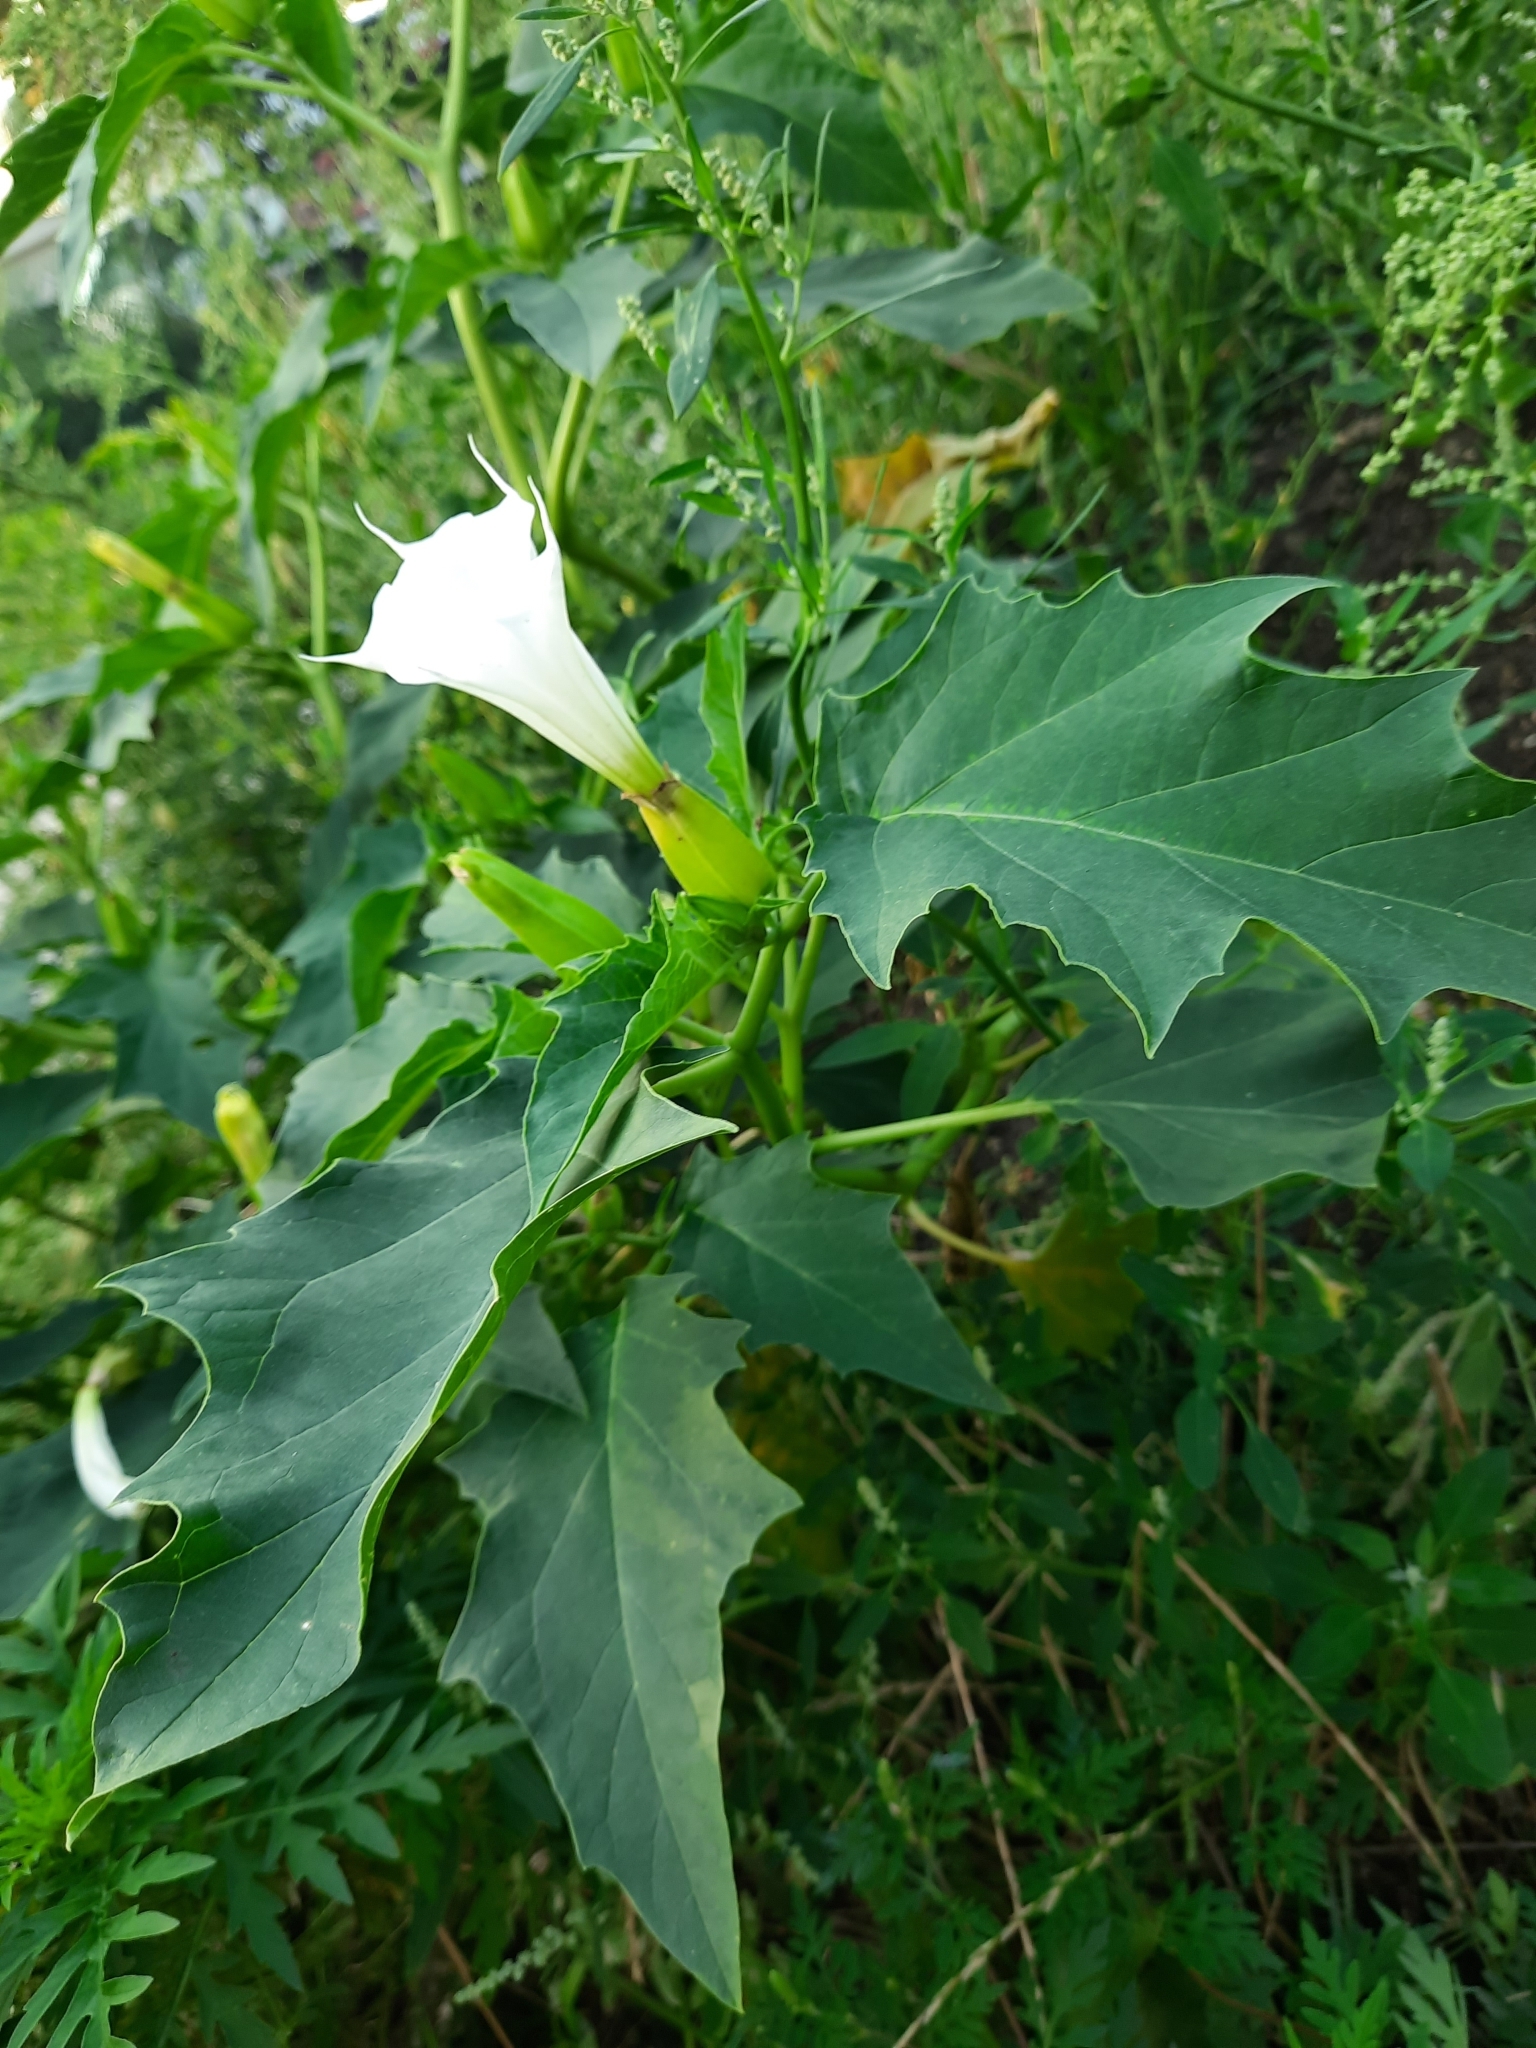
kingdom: Plantae
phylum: Tracheophyta
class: Magnoliopsida
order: Solanales
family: Solanaceae
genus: Datura
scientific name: Datura stramonium
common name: Thorn-apple
